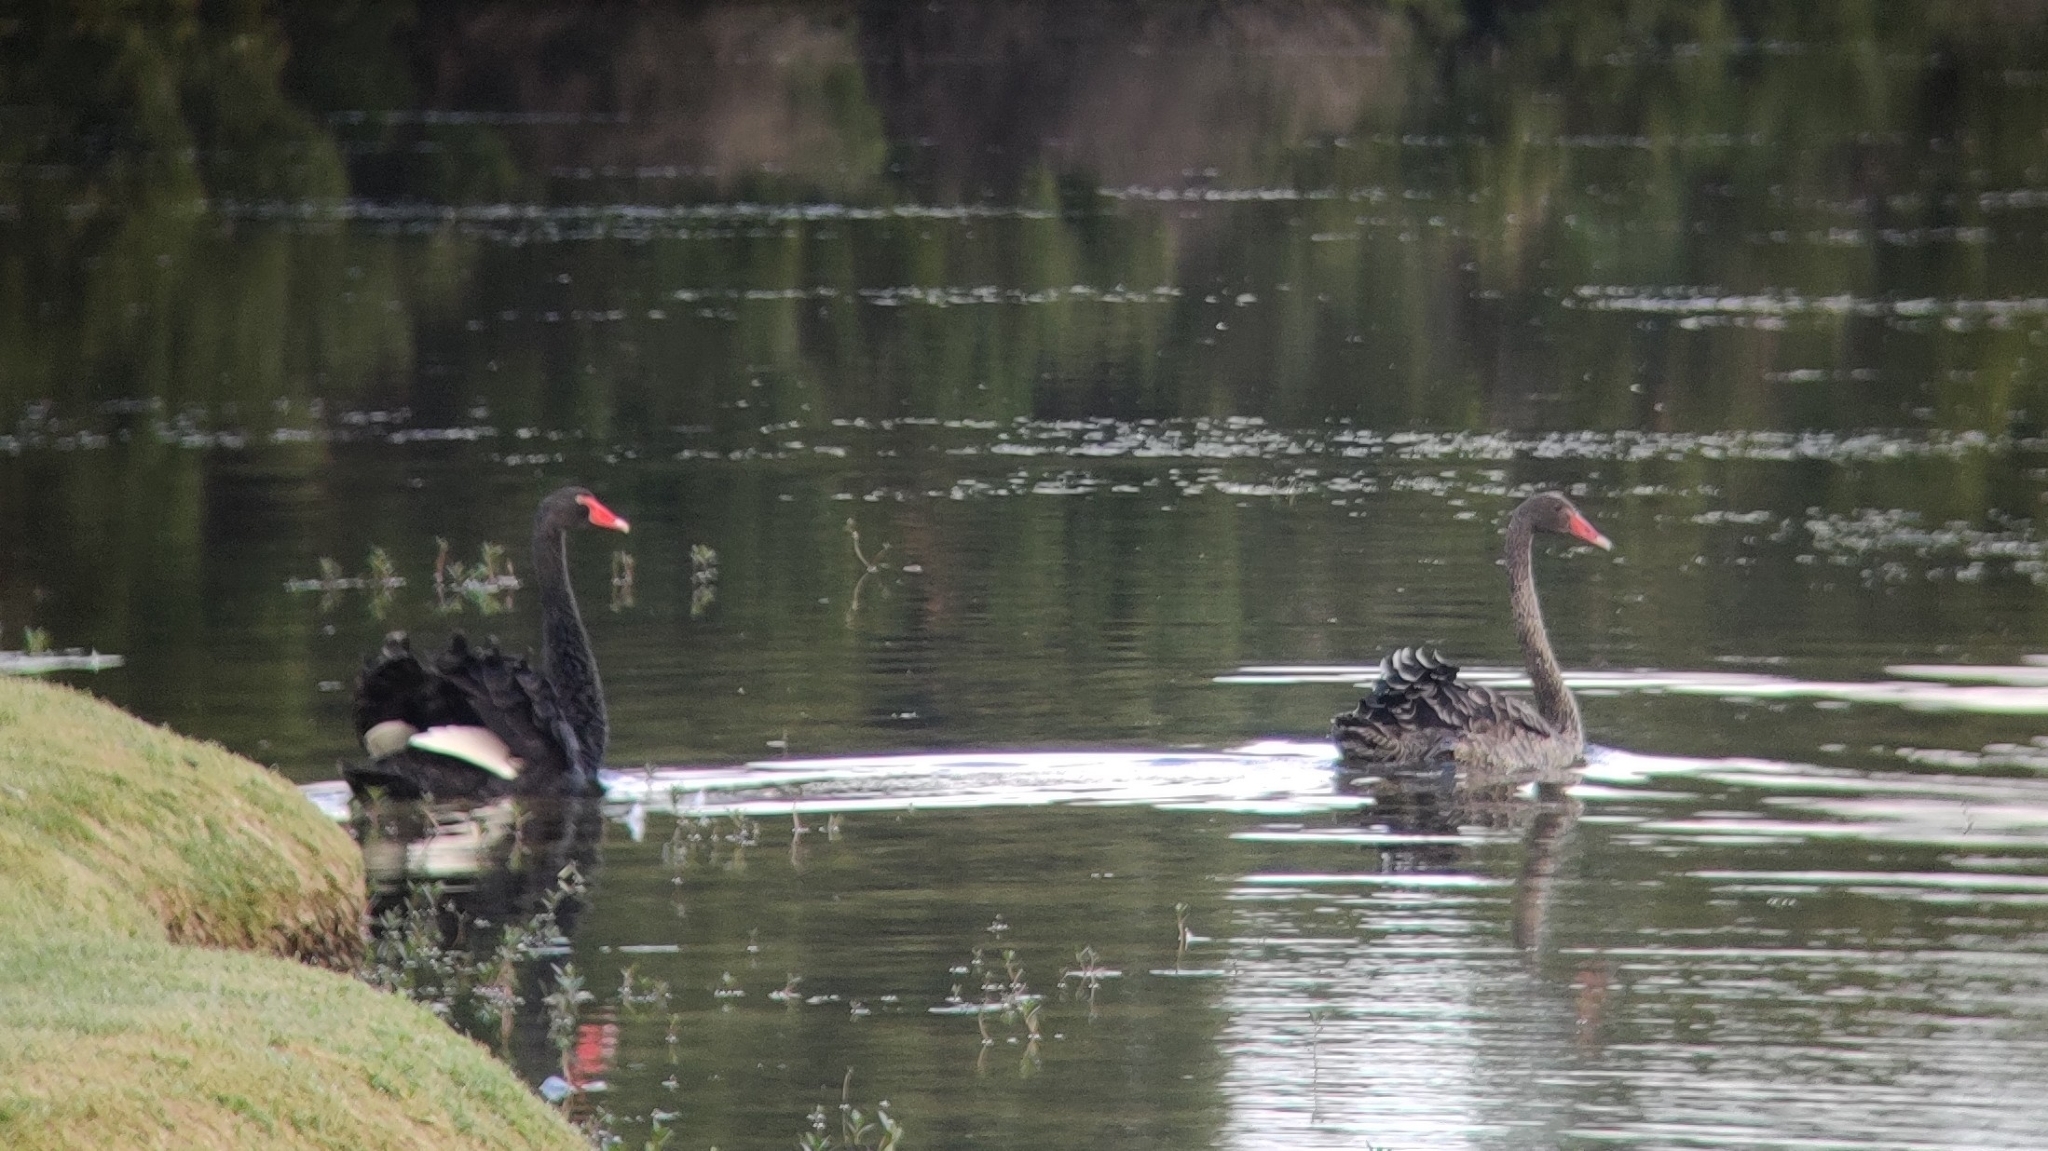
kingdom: Animalia
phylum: Chordata
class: Aves
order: Anseriformes
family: Anatidae
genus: Cygnus
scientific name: Cygnus atratus
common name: Black swan
